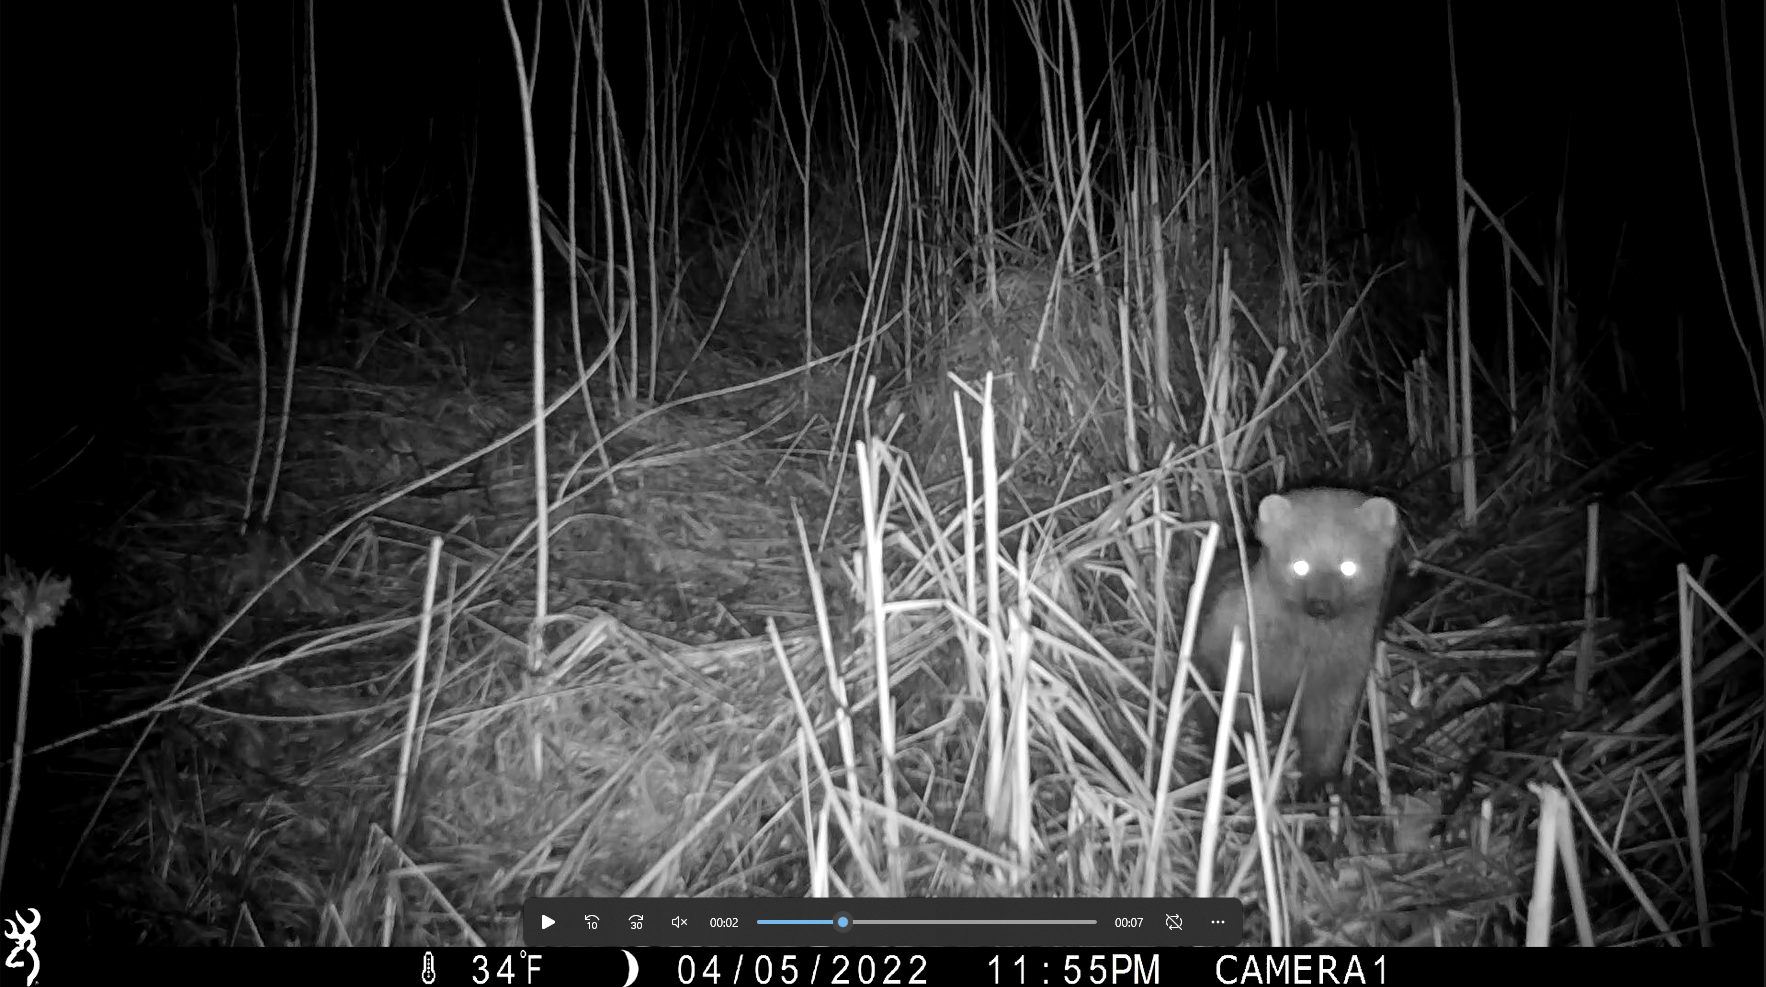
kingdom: Animalia
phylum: Chordata
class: Mammalia
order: Carnivora
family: Mustelidae
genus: Pekania
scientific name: Pekania pennanti
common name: Fisher
